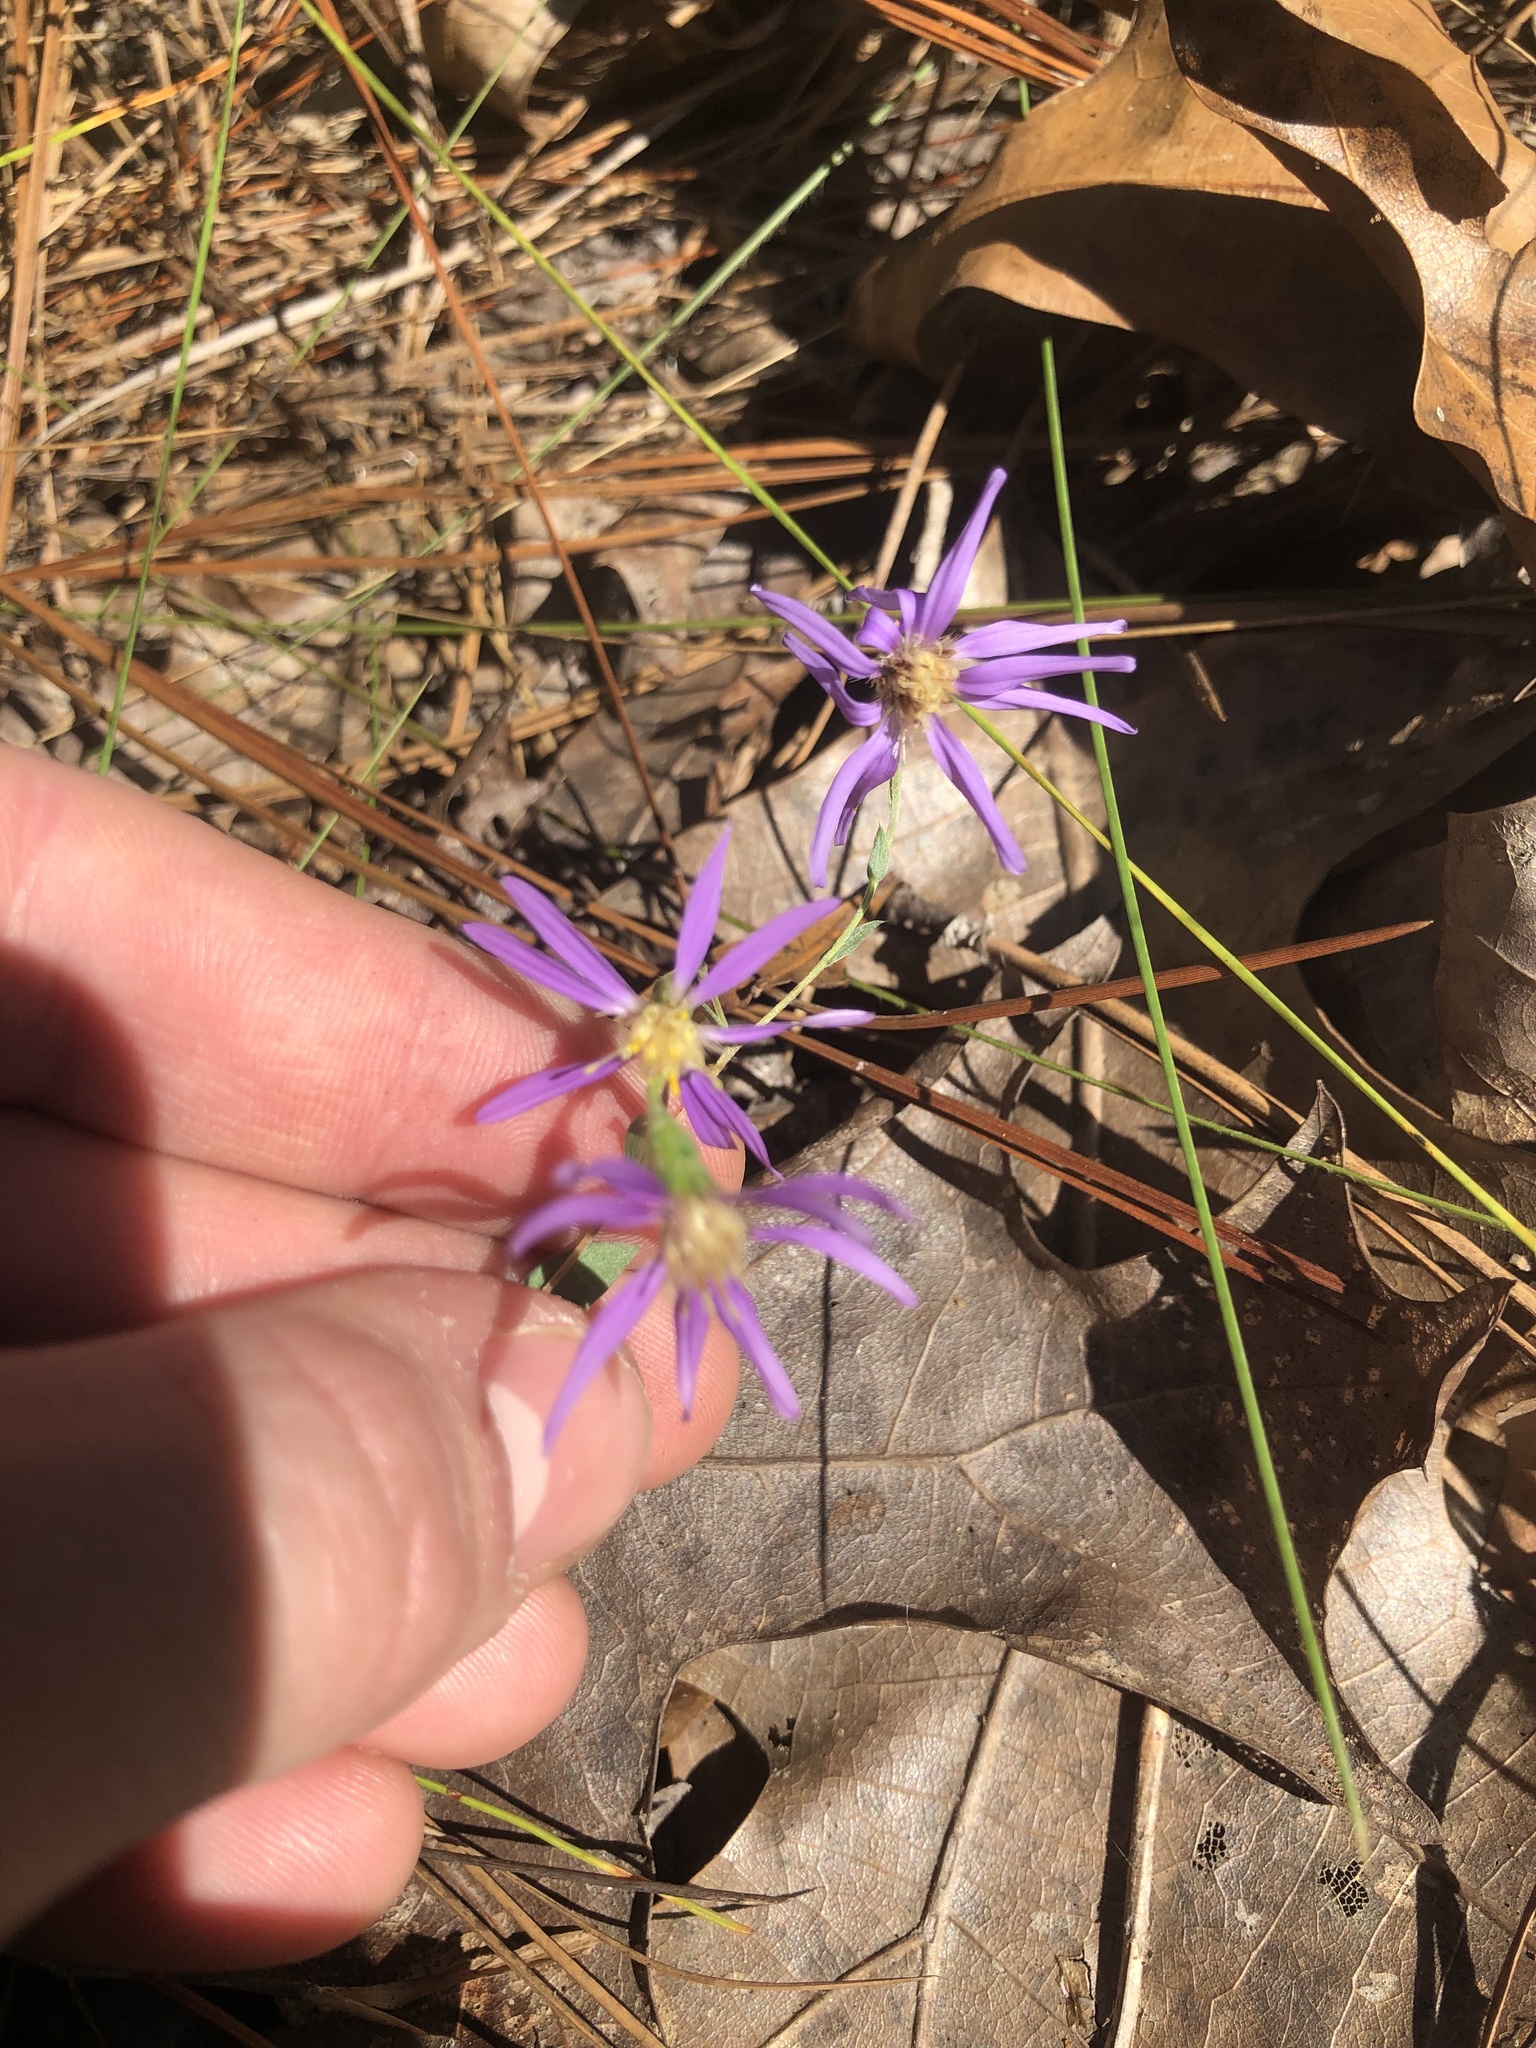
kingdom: Plantae
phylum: Tracheophyta
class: Magnoliopsida
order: Asterales
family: Asteraceae
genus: Symphyotrichum
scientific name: Symphyotrichum concolor
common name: Eastern silver aster
